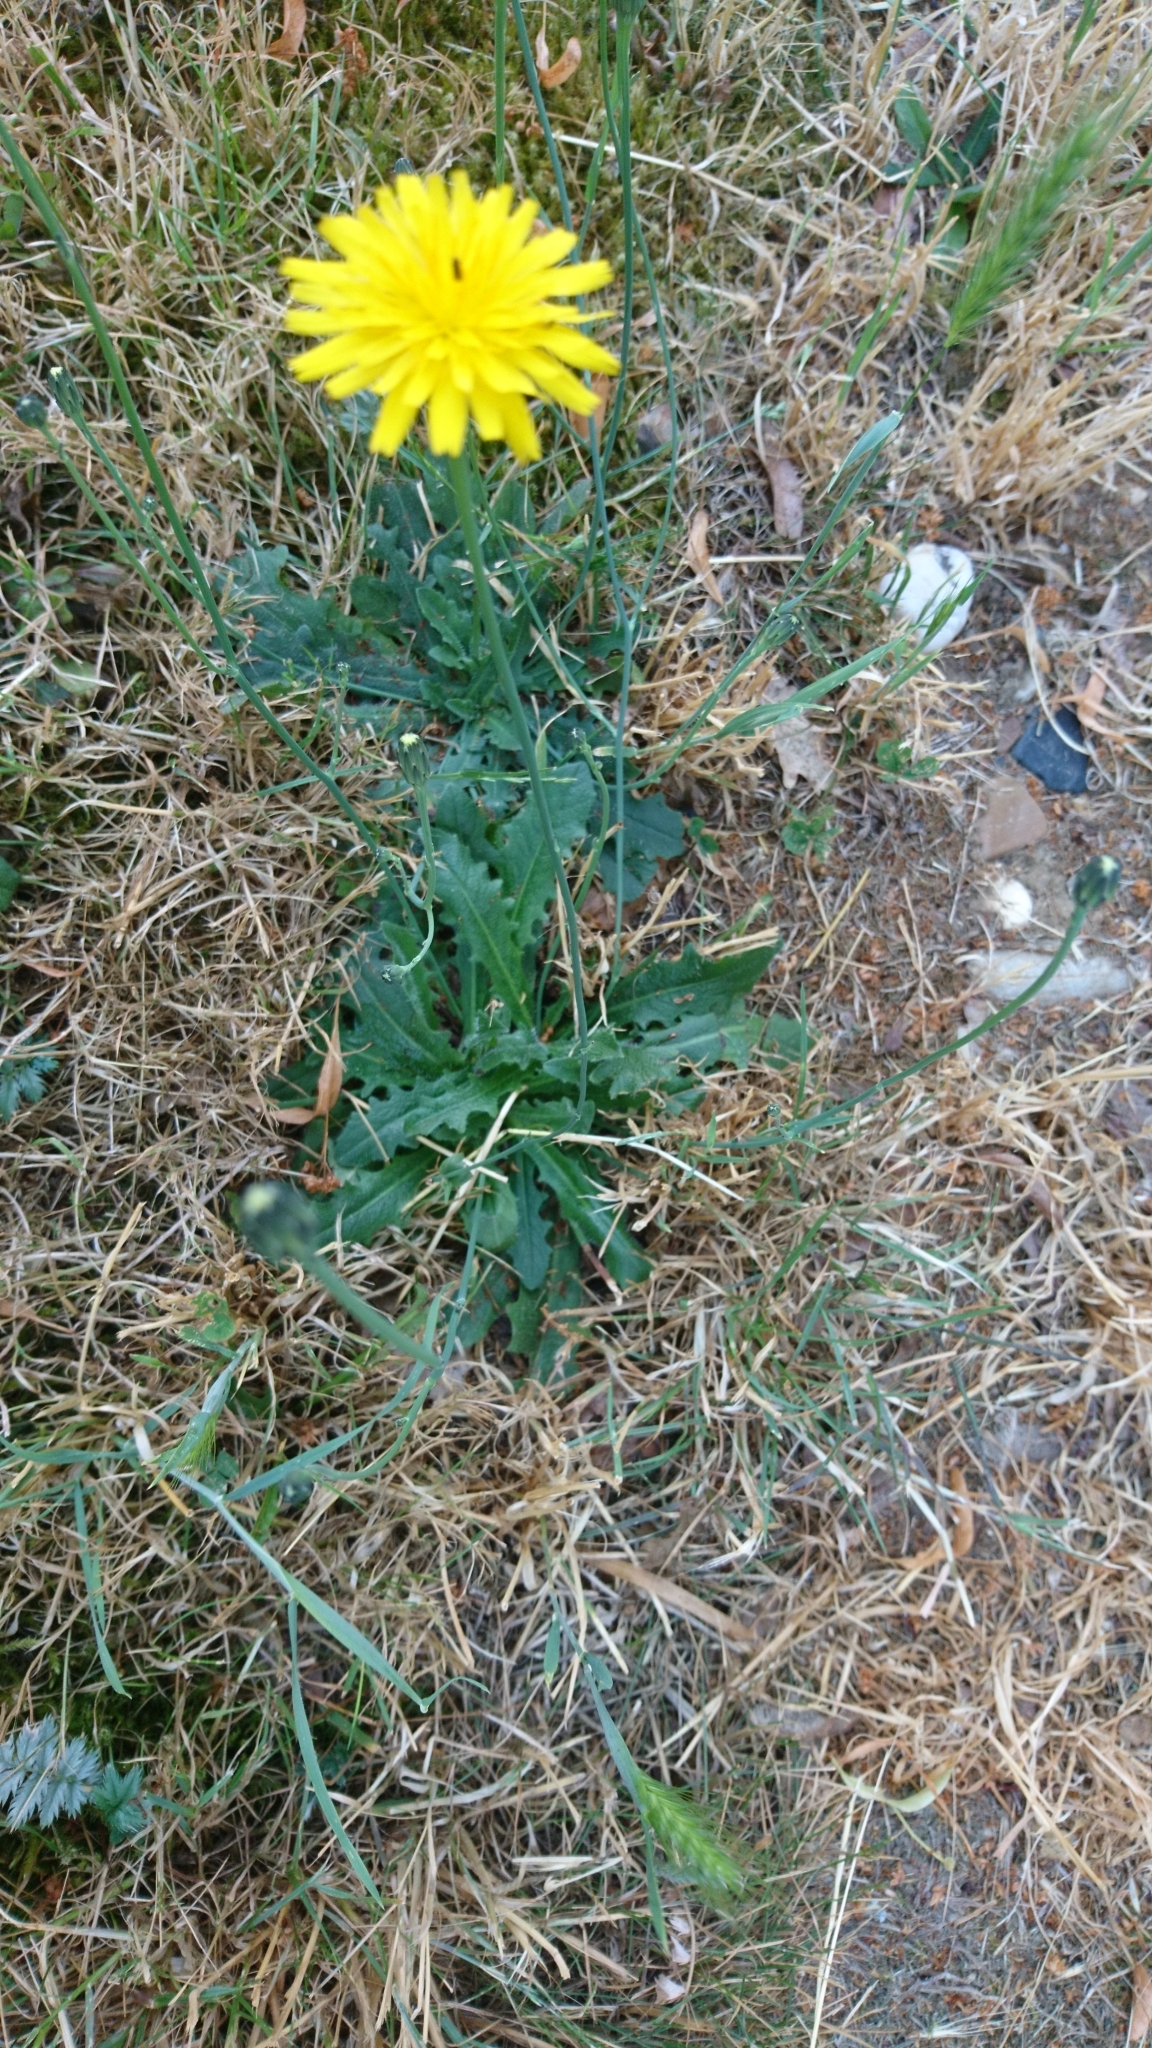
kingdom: Plantae
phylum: Tracheophyta
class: Magnoliopsida
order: Asterales
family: Asteraceae
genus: Hypochaeris
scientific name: Hypochaeris radicata
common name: Flatweed
